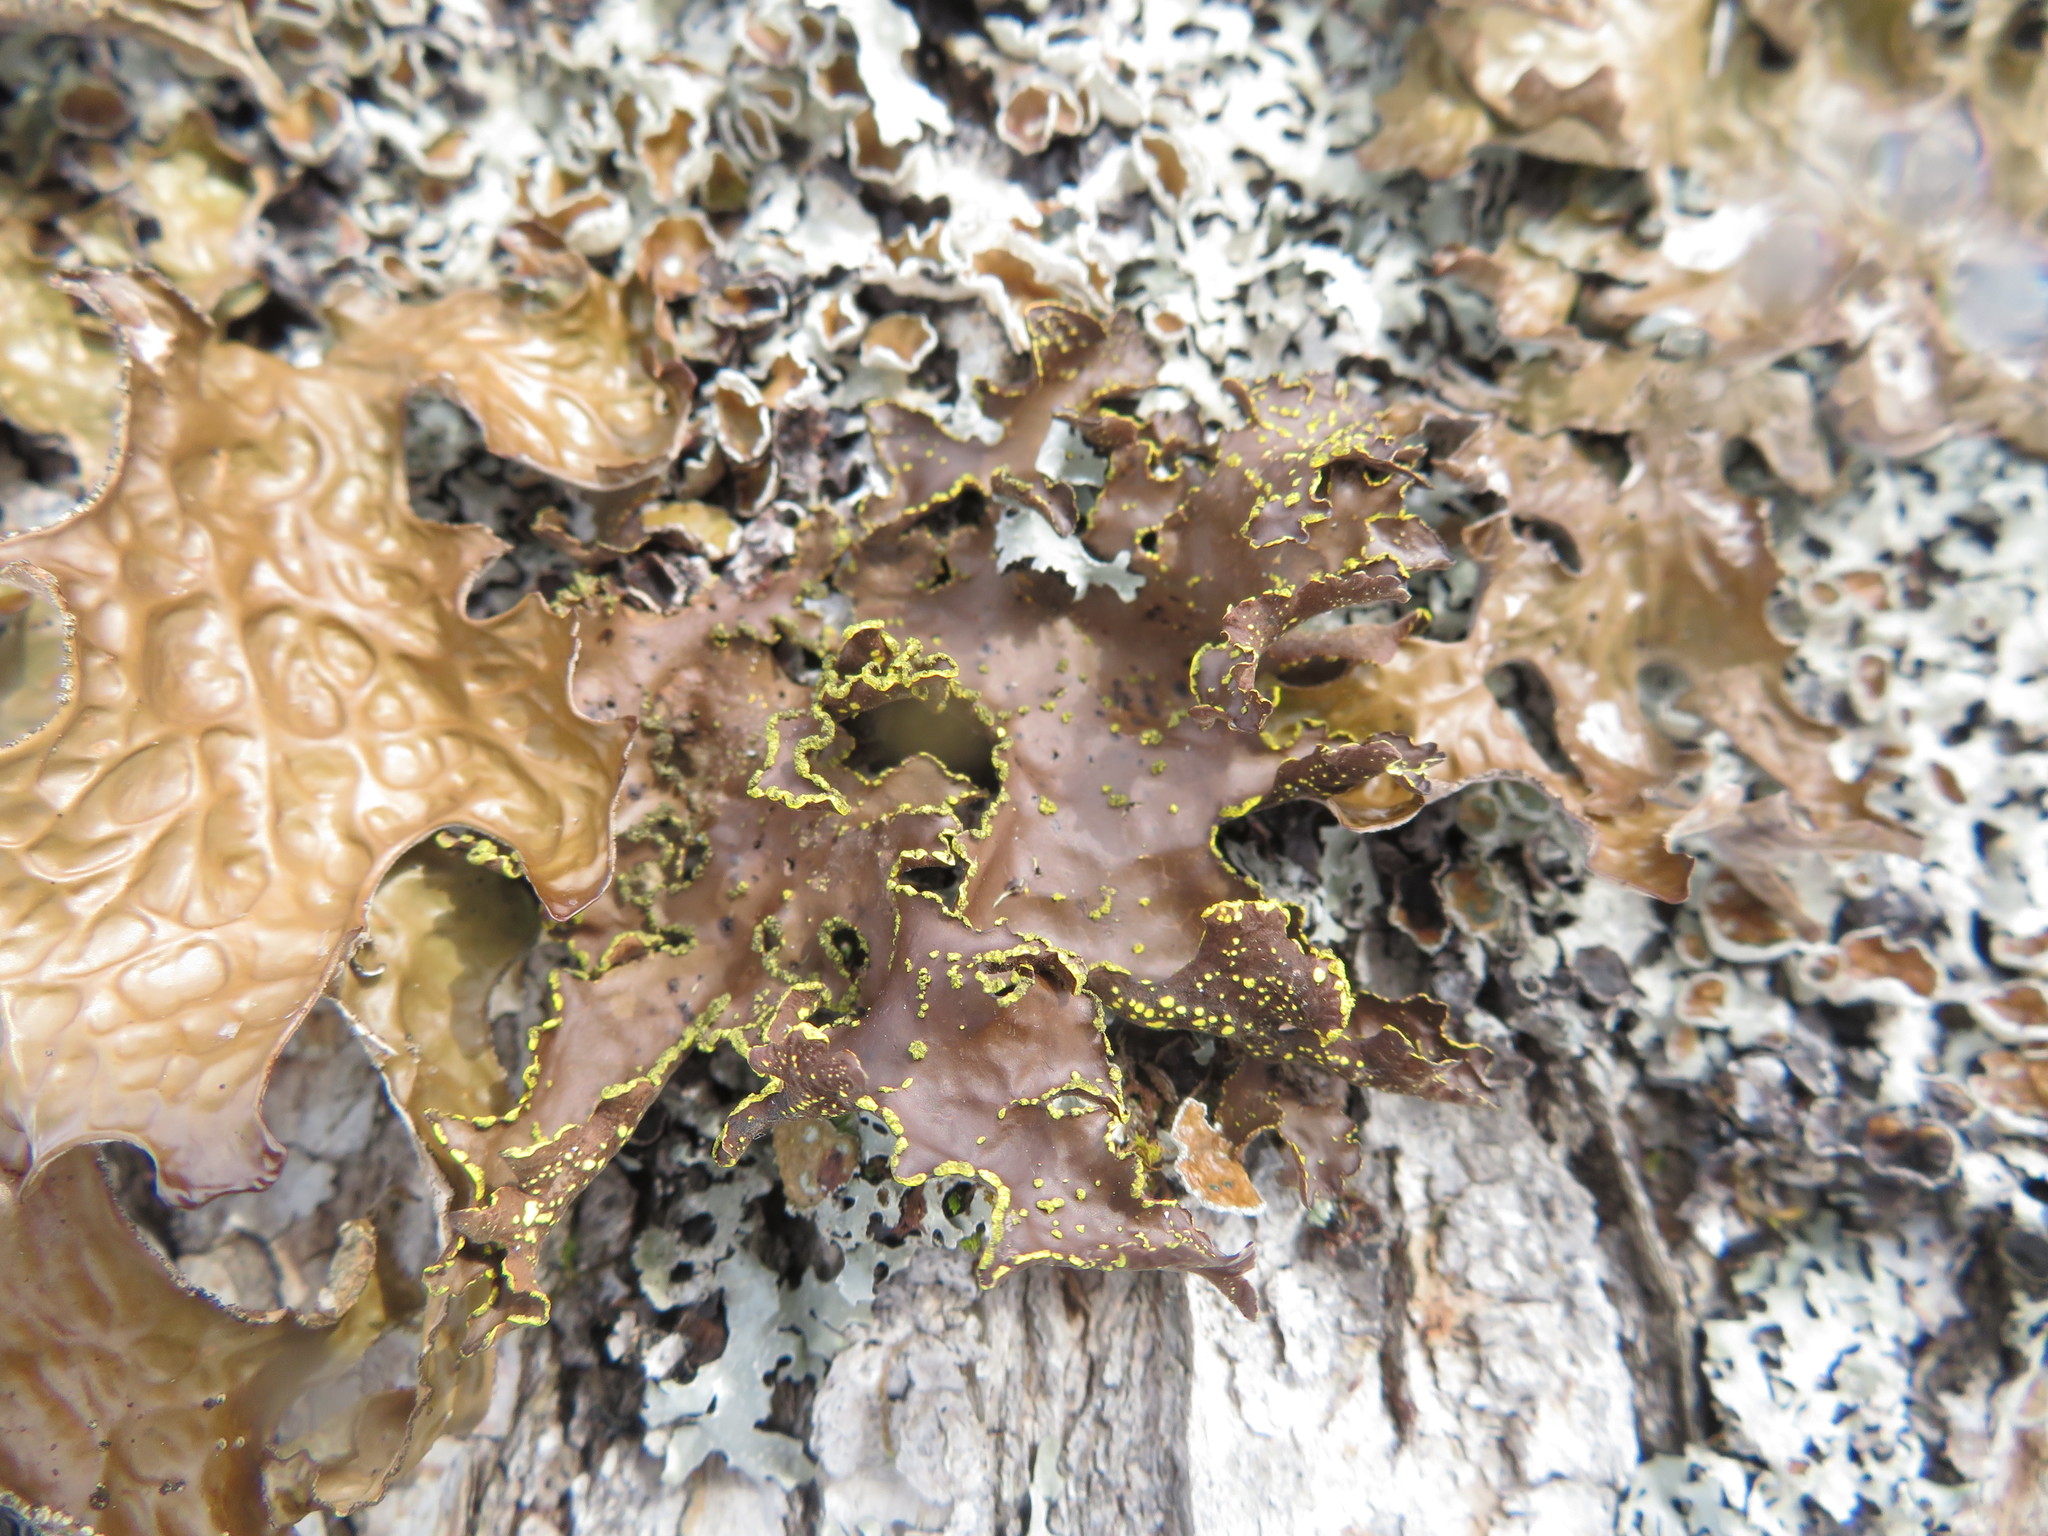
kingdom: Fungi
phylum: Ascomycota
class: Lecanoromycetes
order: Peltigerales
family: Lobariaceae
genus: Pseudocyphellaria
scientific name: Pseudocyphellaria holarctica
